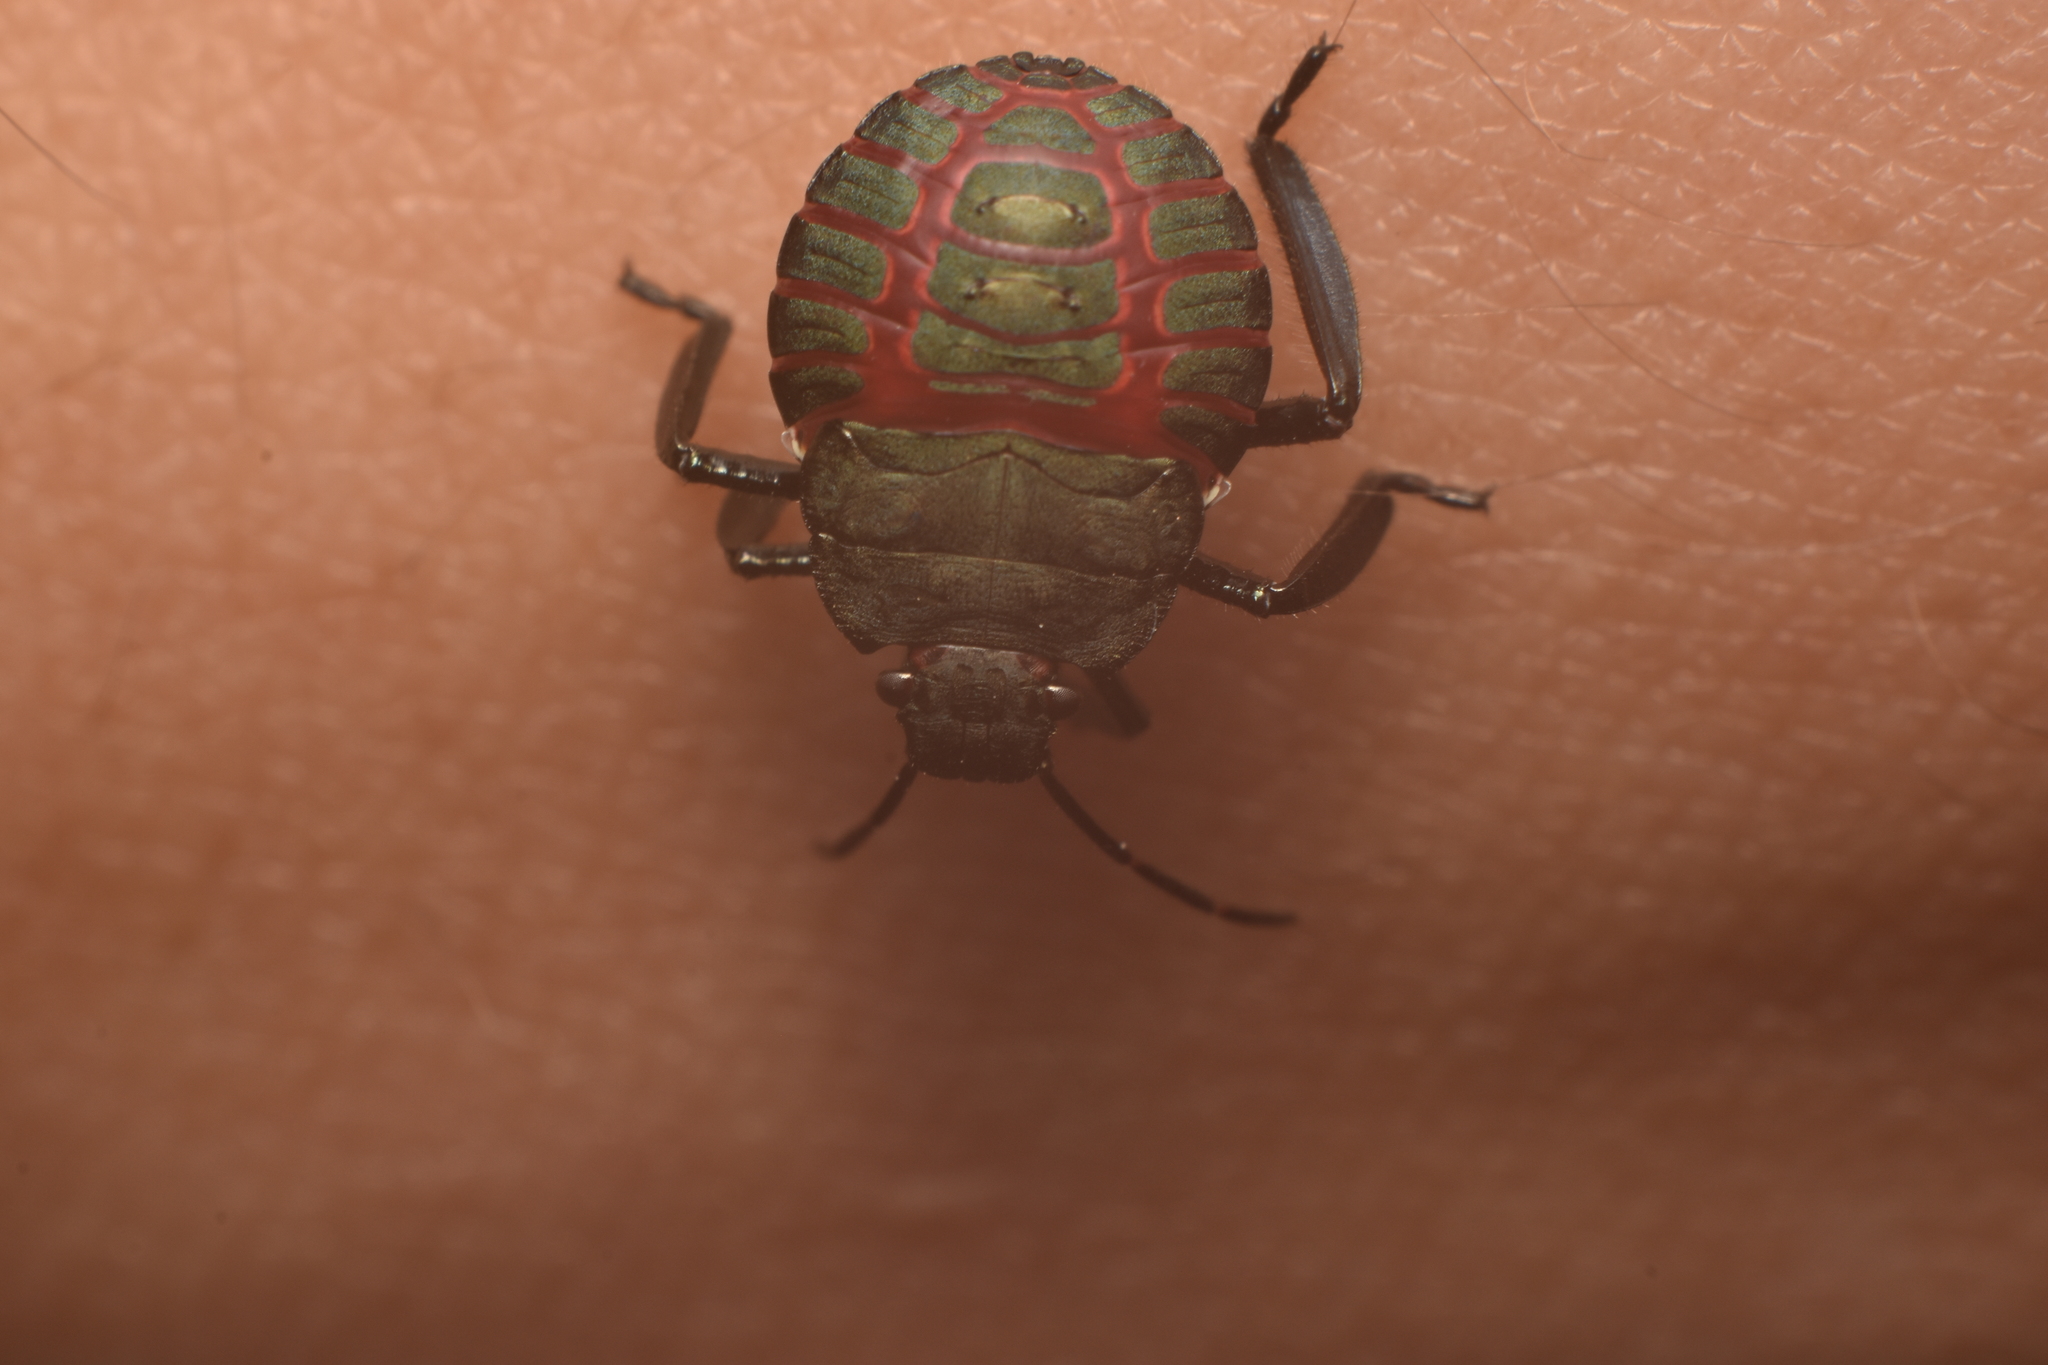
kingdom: Animalia
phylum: Arthropoda
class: Insecta
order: Hemiptera
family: Pentatomidae
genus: Pellaea
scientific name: Pellaea stictica
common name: Stink bug
